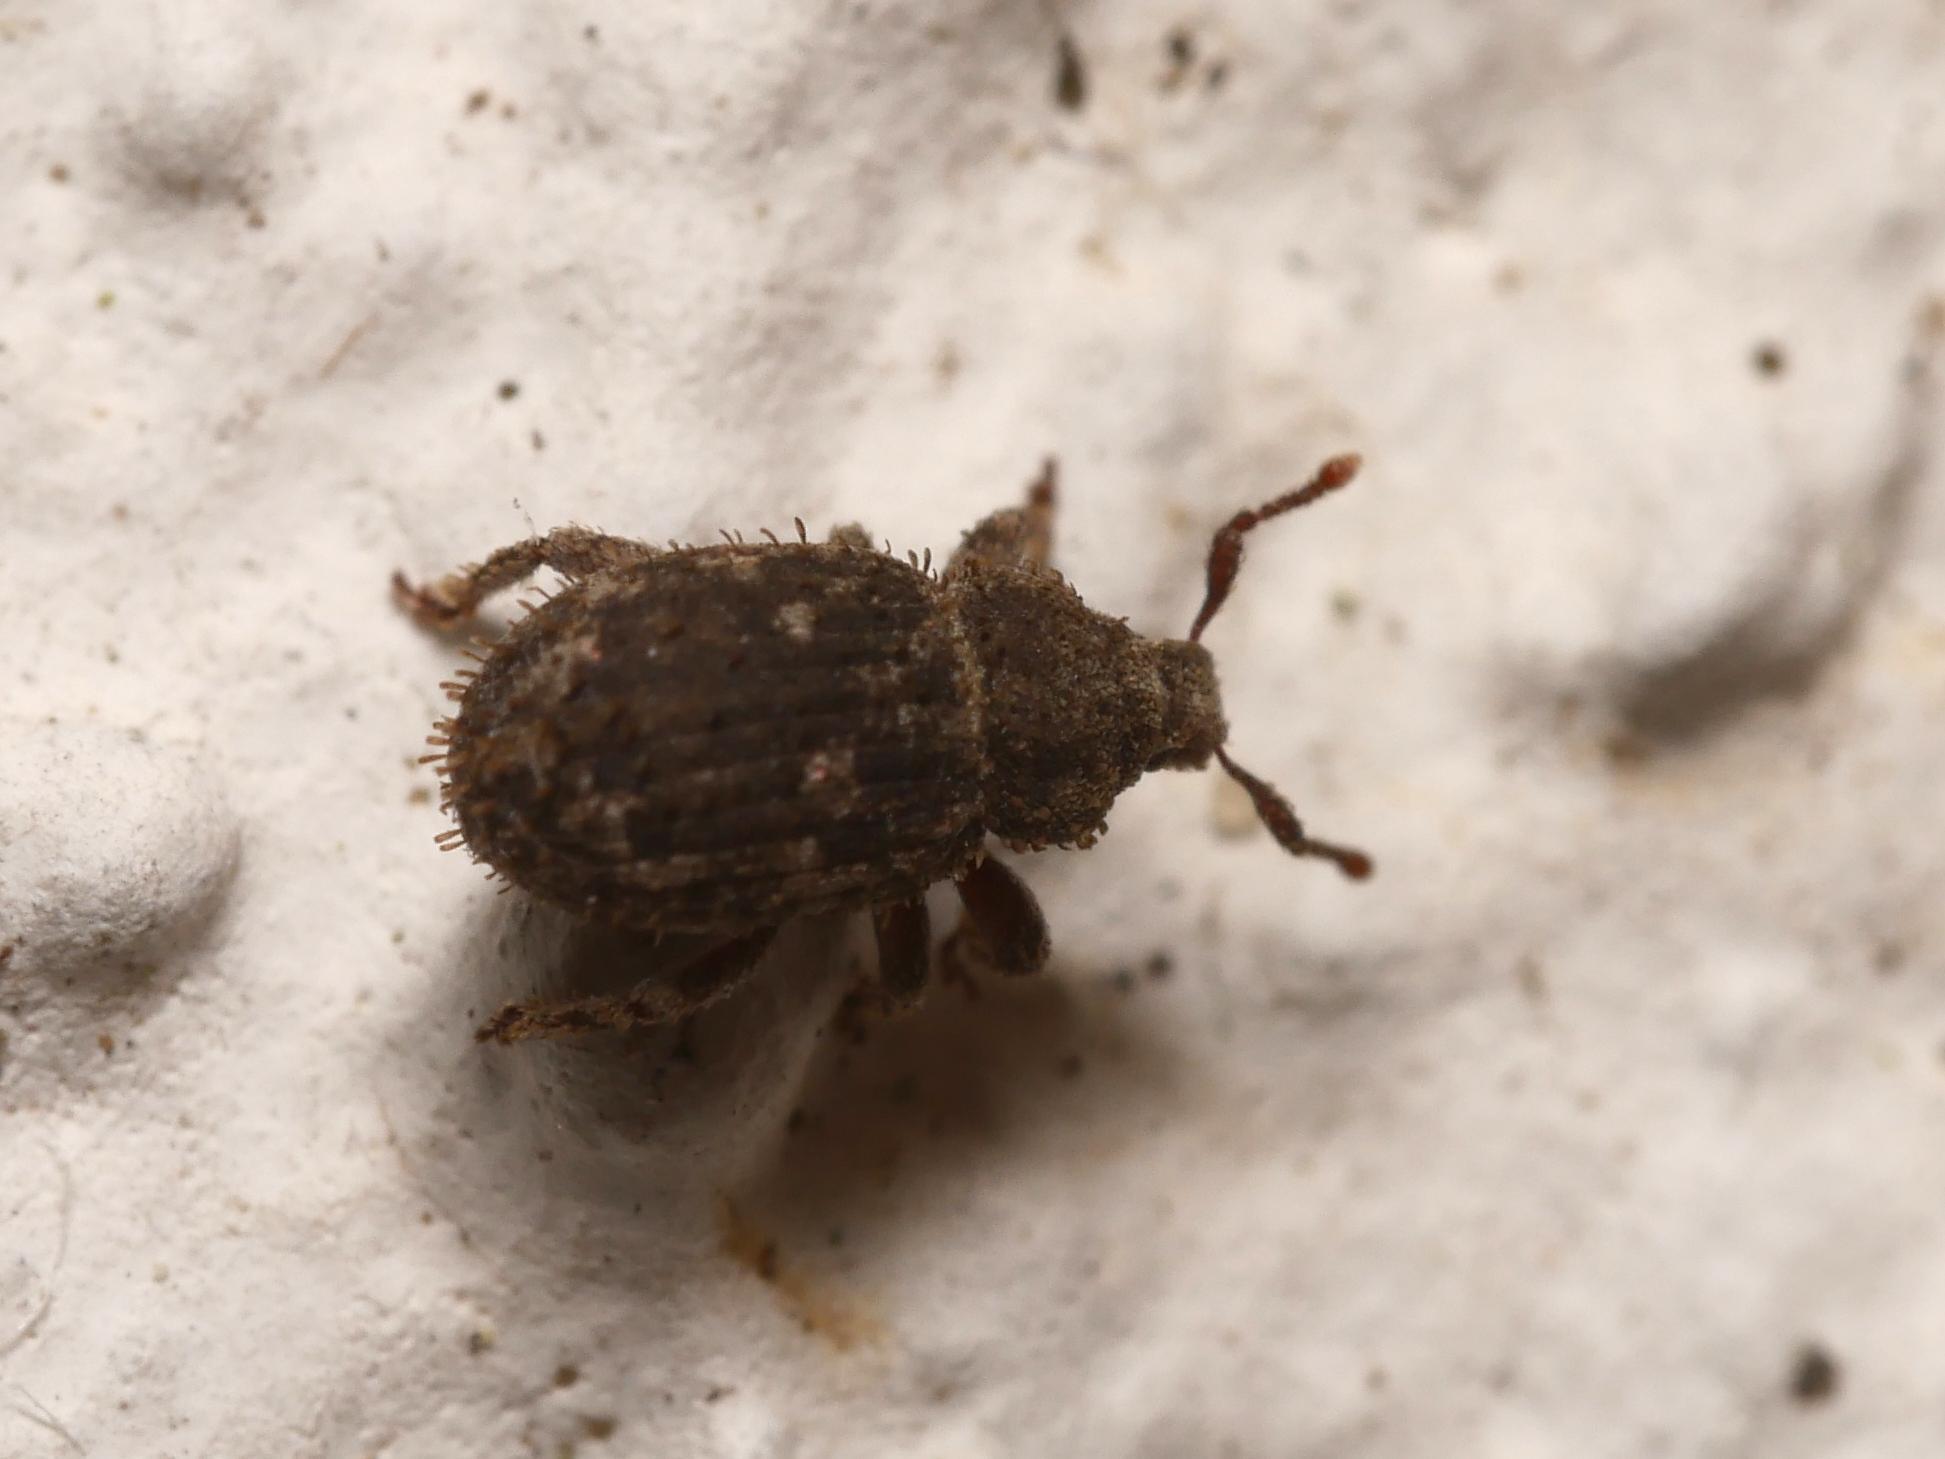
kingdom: Animalia
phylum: Arthropoda
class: Insecta
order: Coleoptera
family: Curculionidae
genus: Trachyphloeus
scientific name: Trachyphloeus scabriculus
